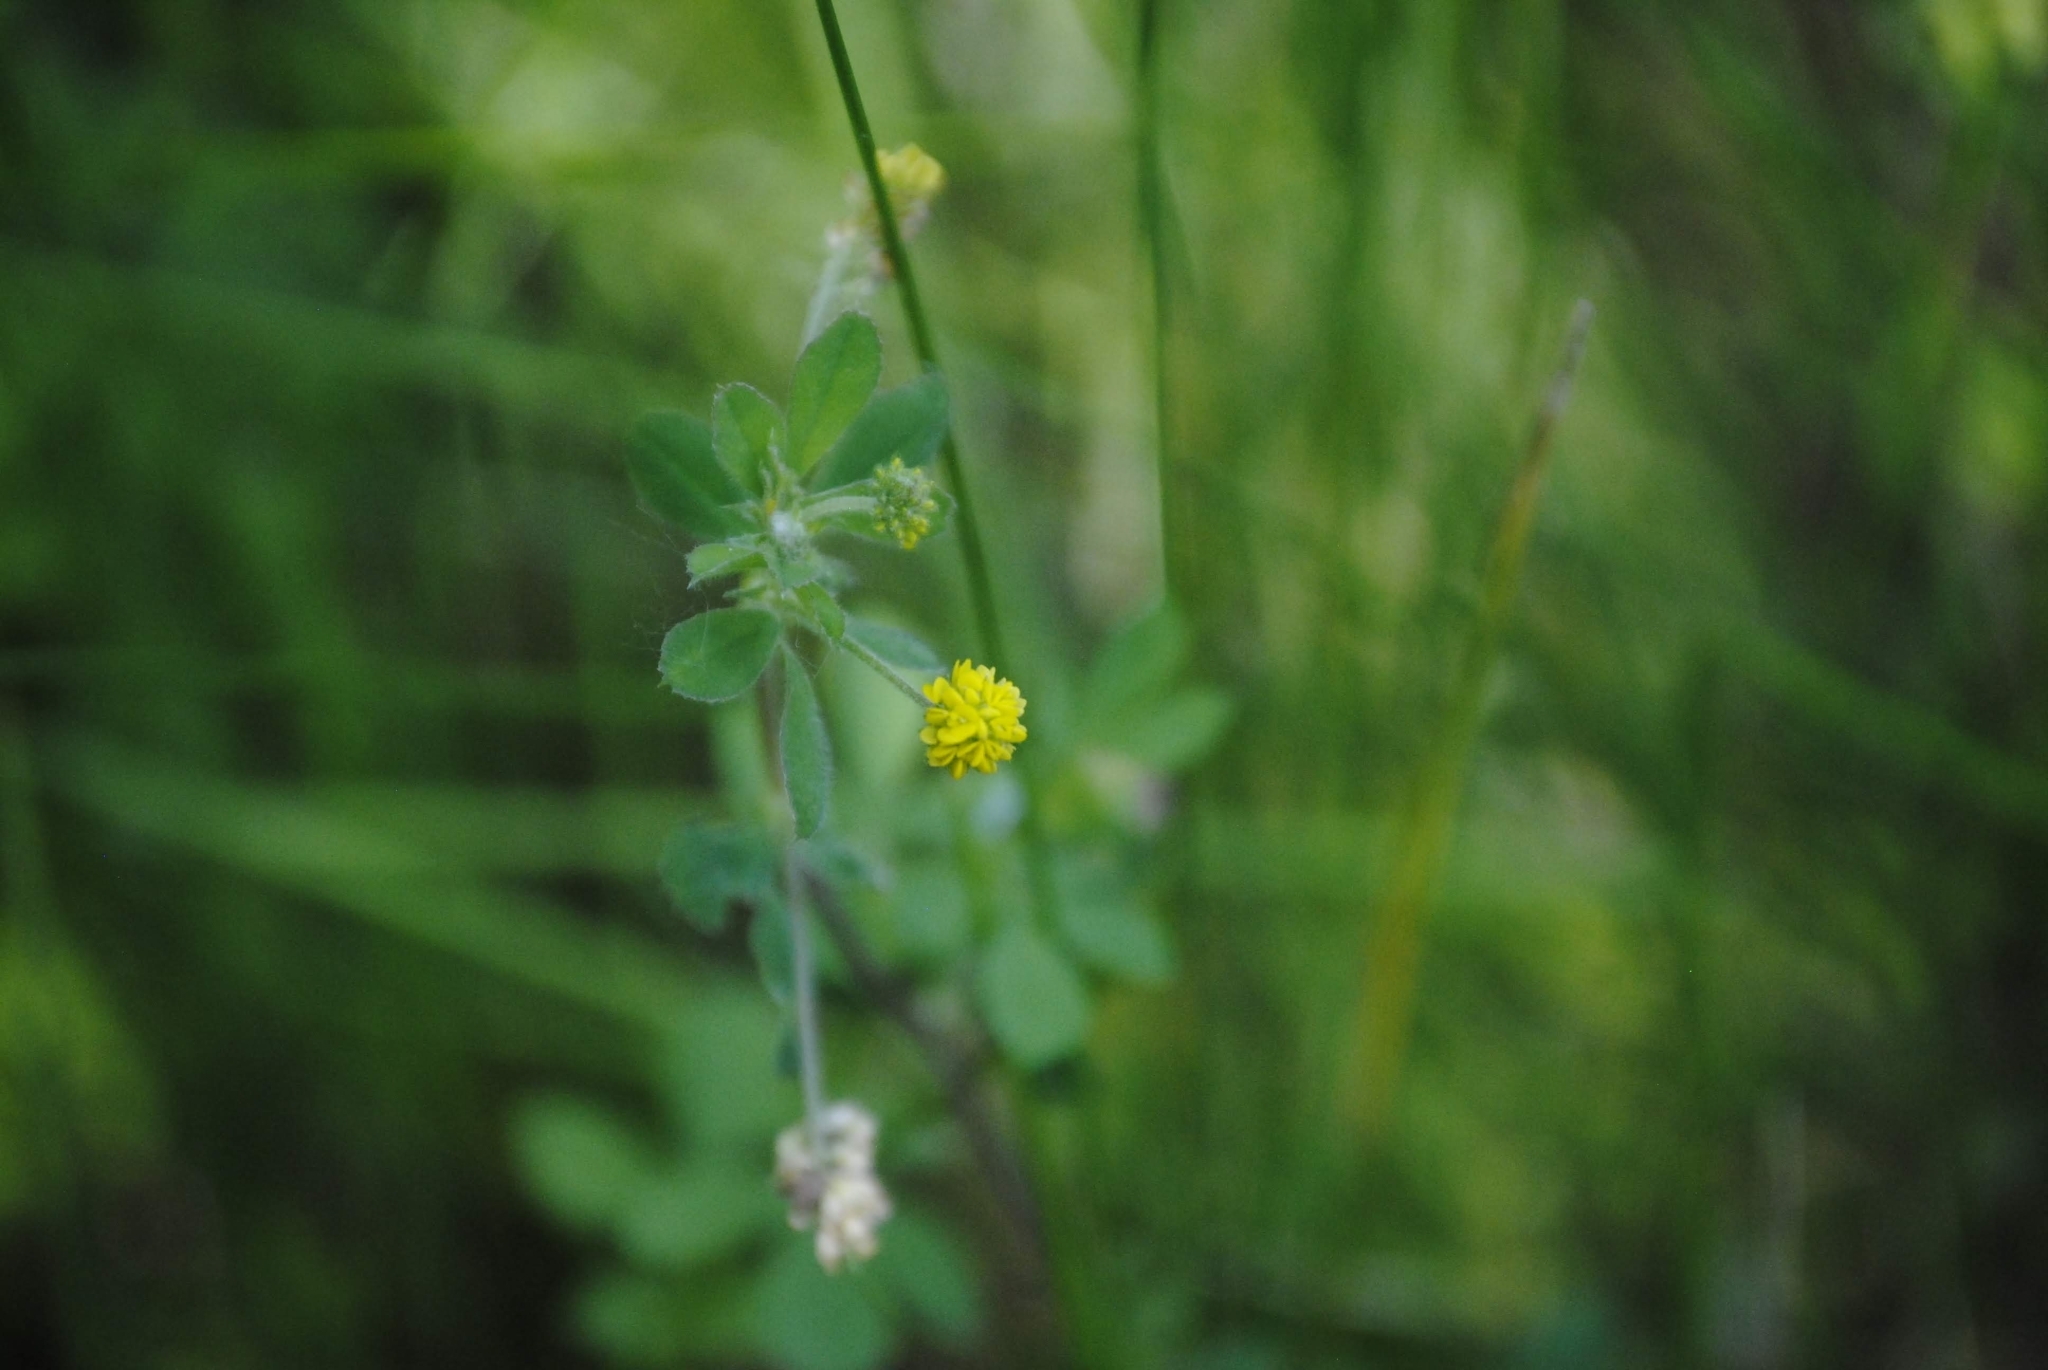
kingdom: Plantae
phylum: Tracheophyta
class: Magnoliopsida
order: Fabales
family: Fabaceae
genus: Medicago
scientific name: Medicago lupulina
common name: Black medick
